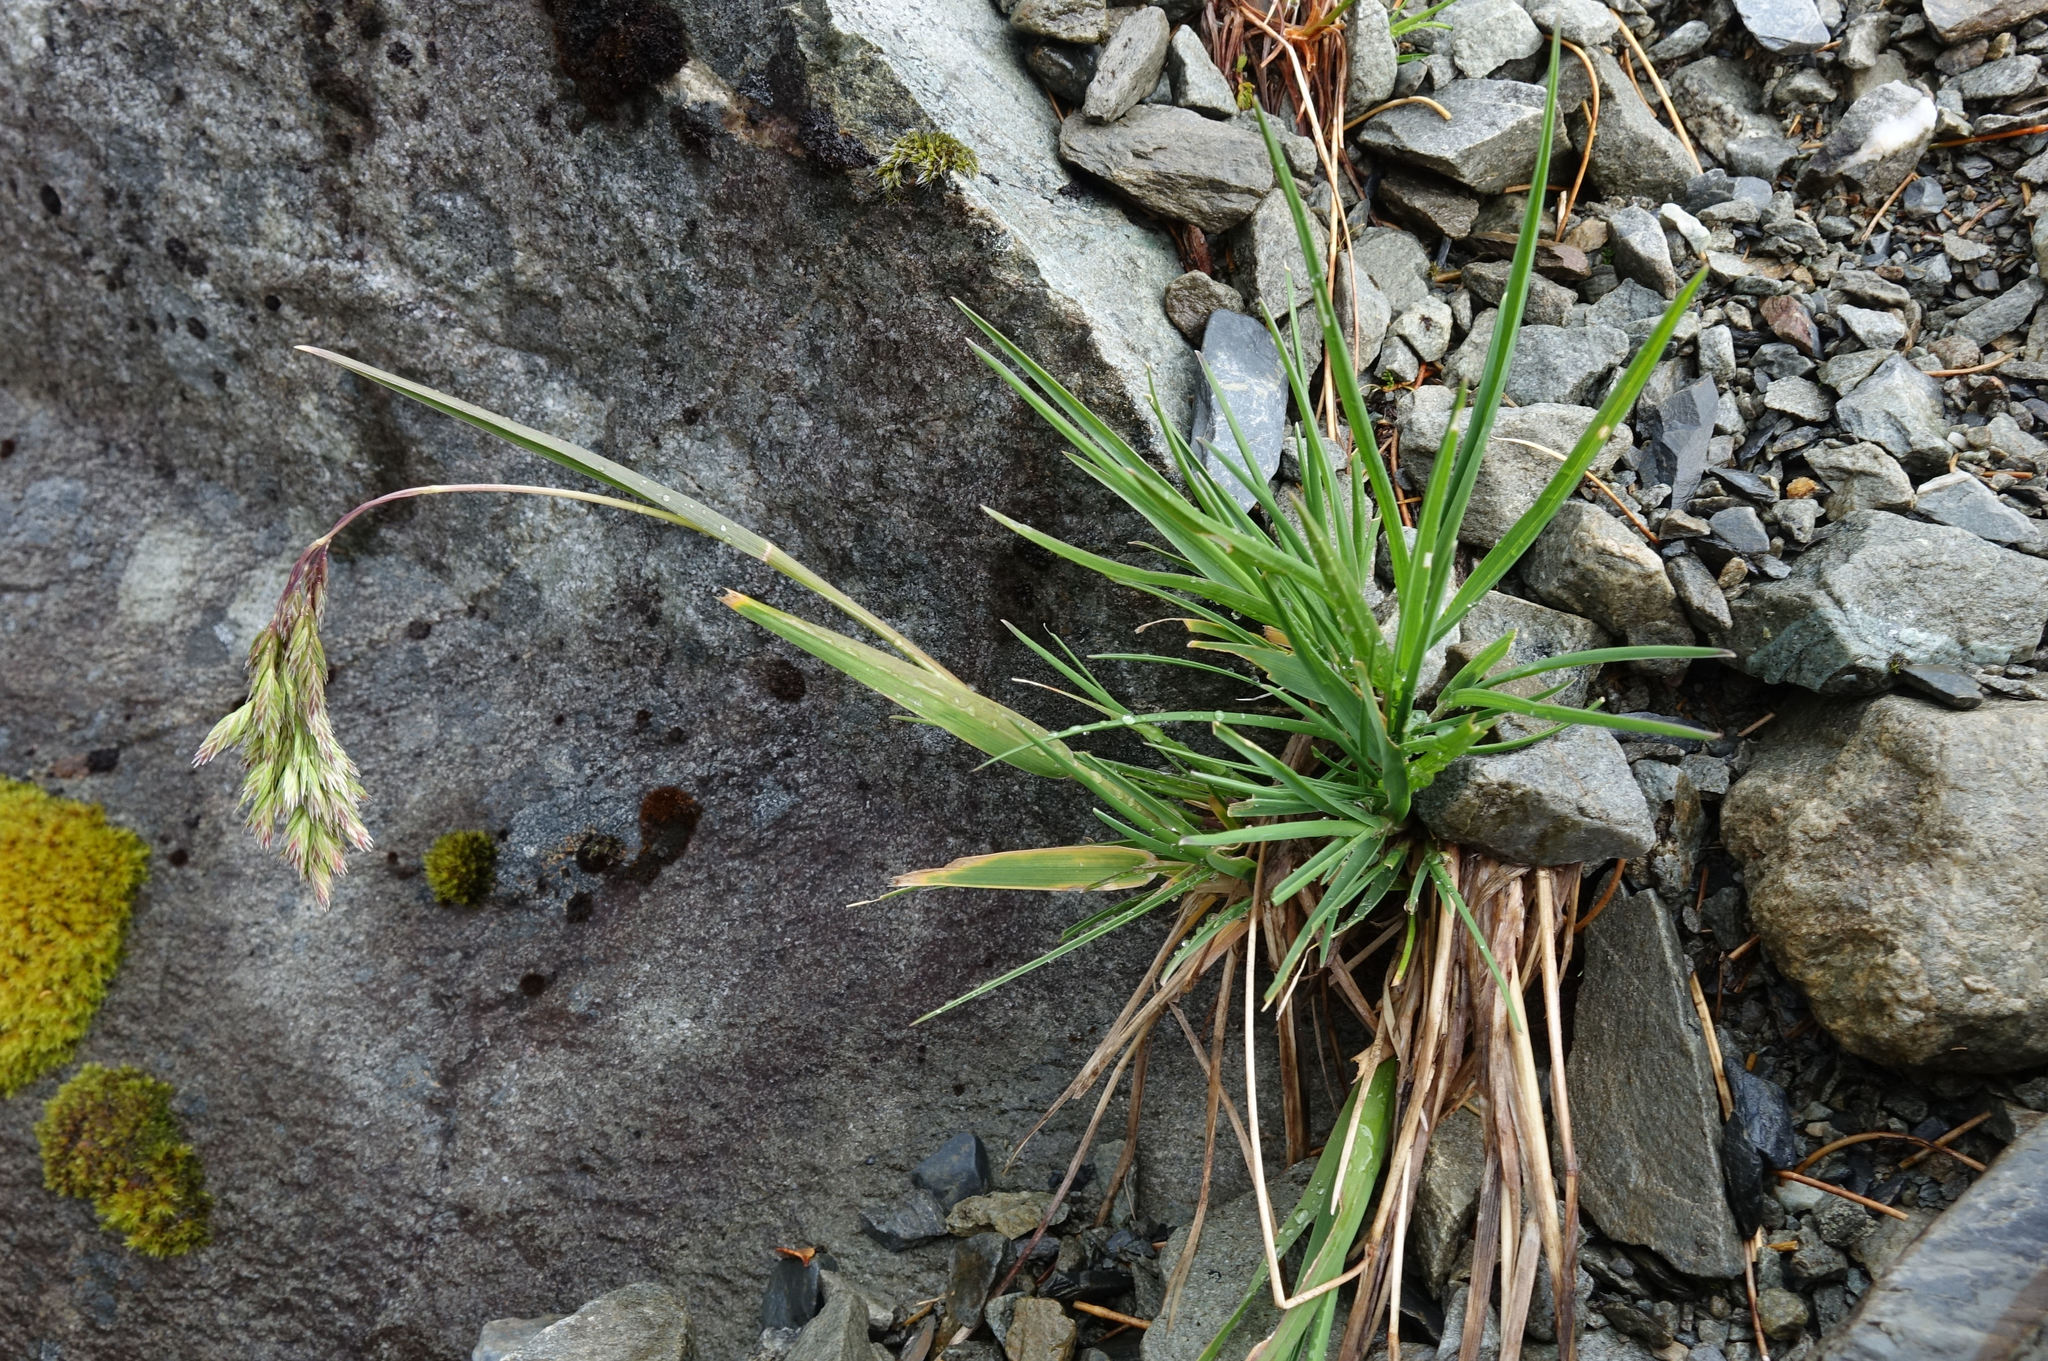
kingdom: Plantae
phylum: Tracheophyta
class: Liliopsida
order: Poales
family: Poaceae
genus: Poa
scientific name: Poa novae-zelandiae
